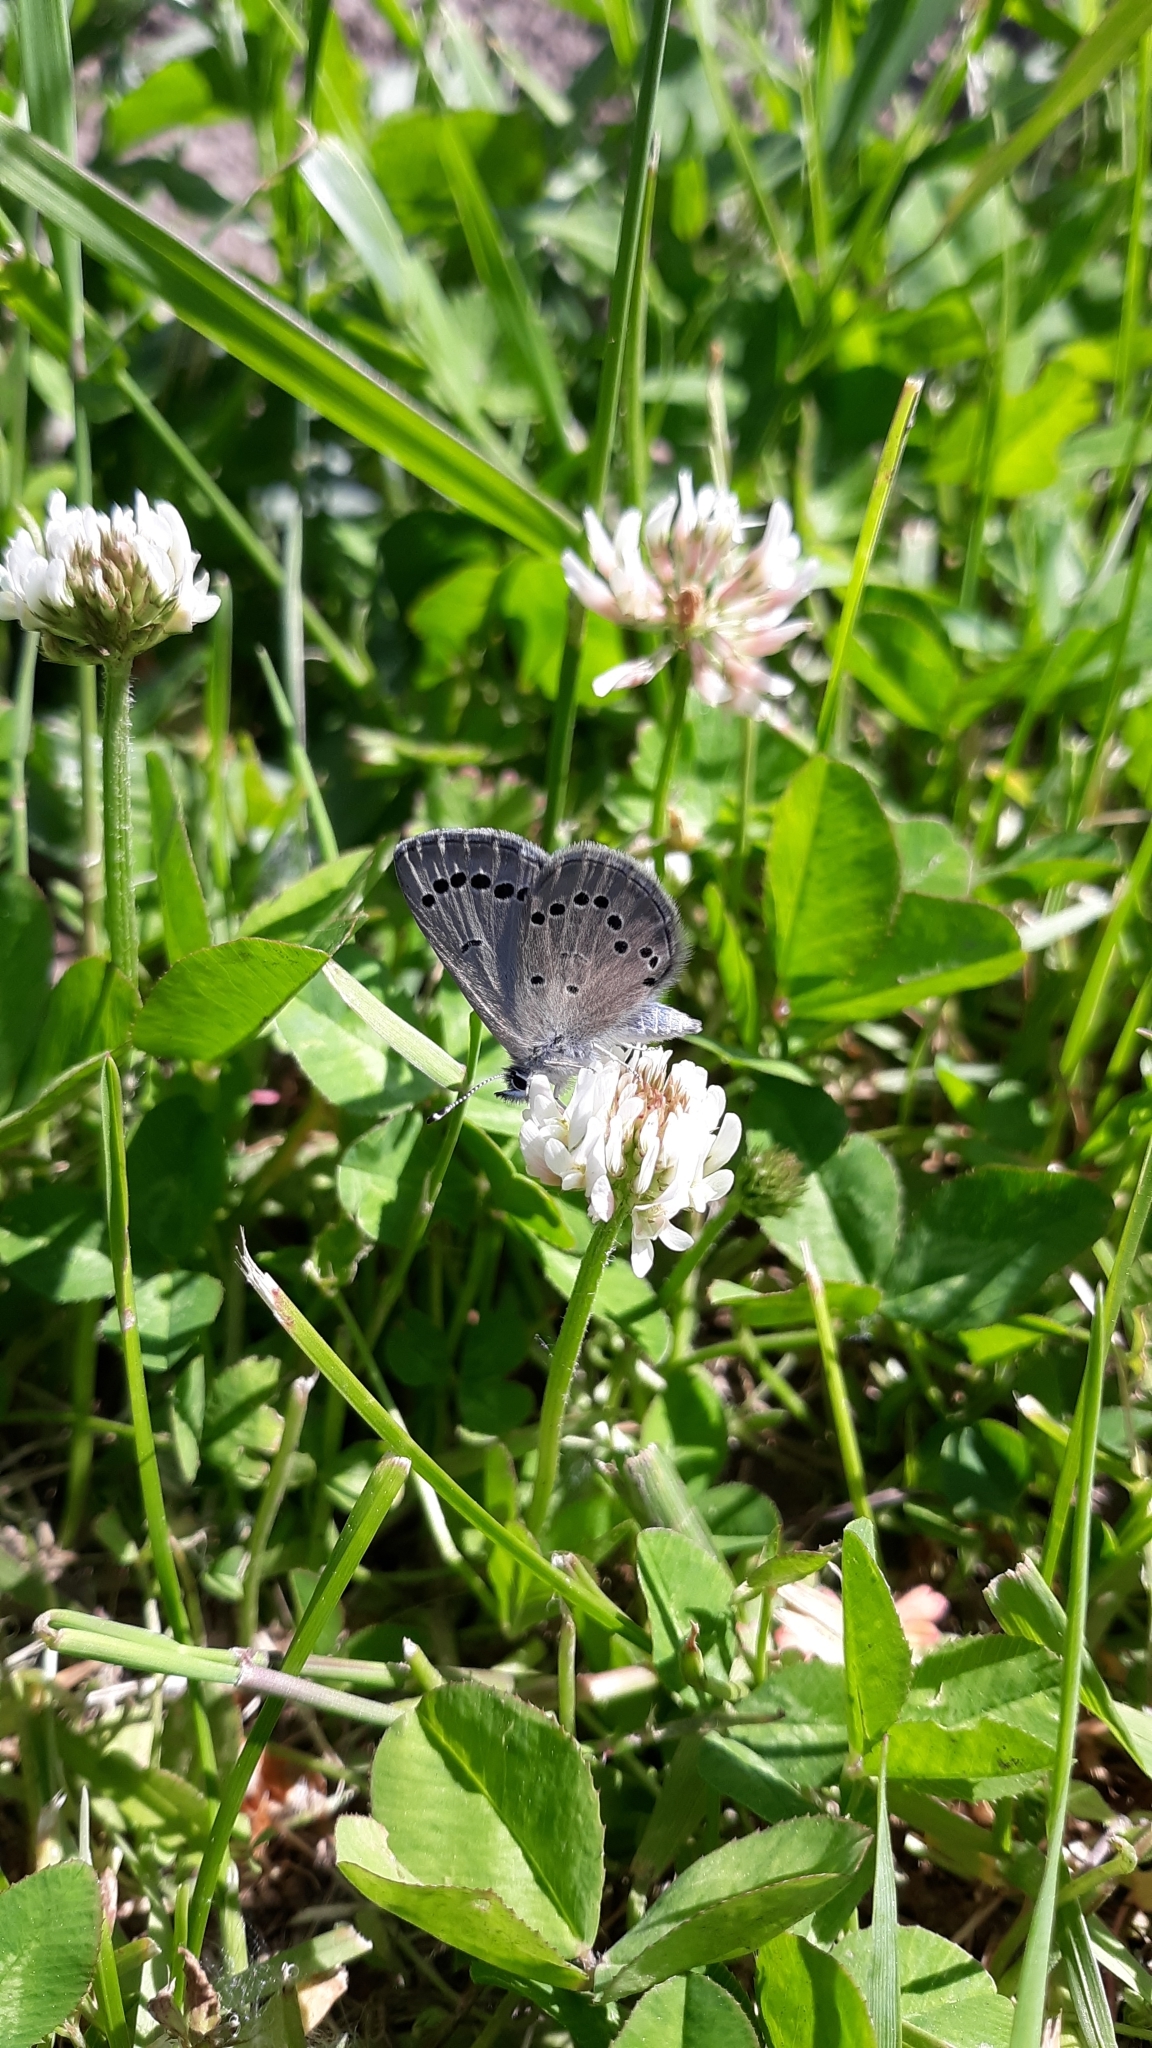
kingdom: Animalia
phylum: Arthropoda
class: Insecta
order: Lepidoptera
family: Lycaenidae
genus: Glaucopsyche
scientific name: Glaucopsyche lygdamus
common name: Silvery blue
